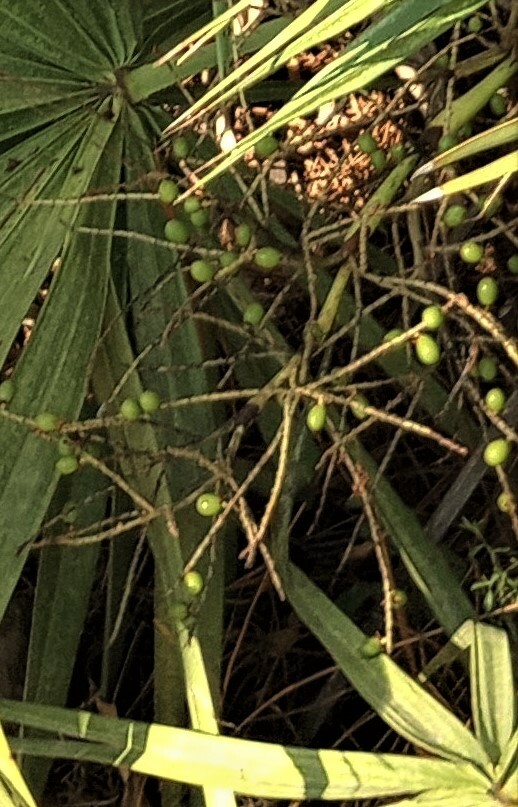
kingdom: Plantae
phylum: Tracheophyta
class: Liliopsida
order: Arecales
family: Arecaceae
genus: Serenoa
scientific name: Serenoa repens
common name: Saw-palmetto
